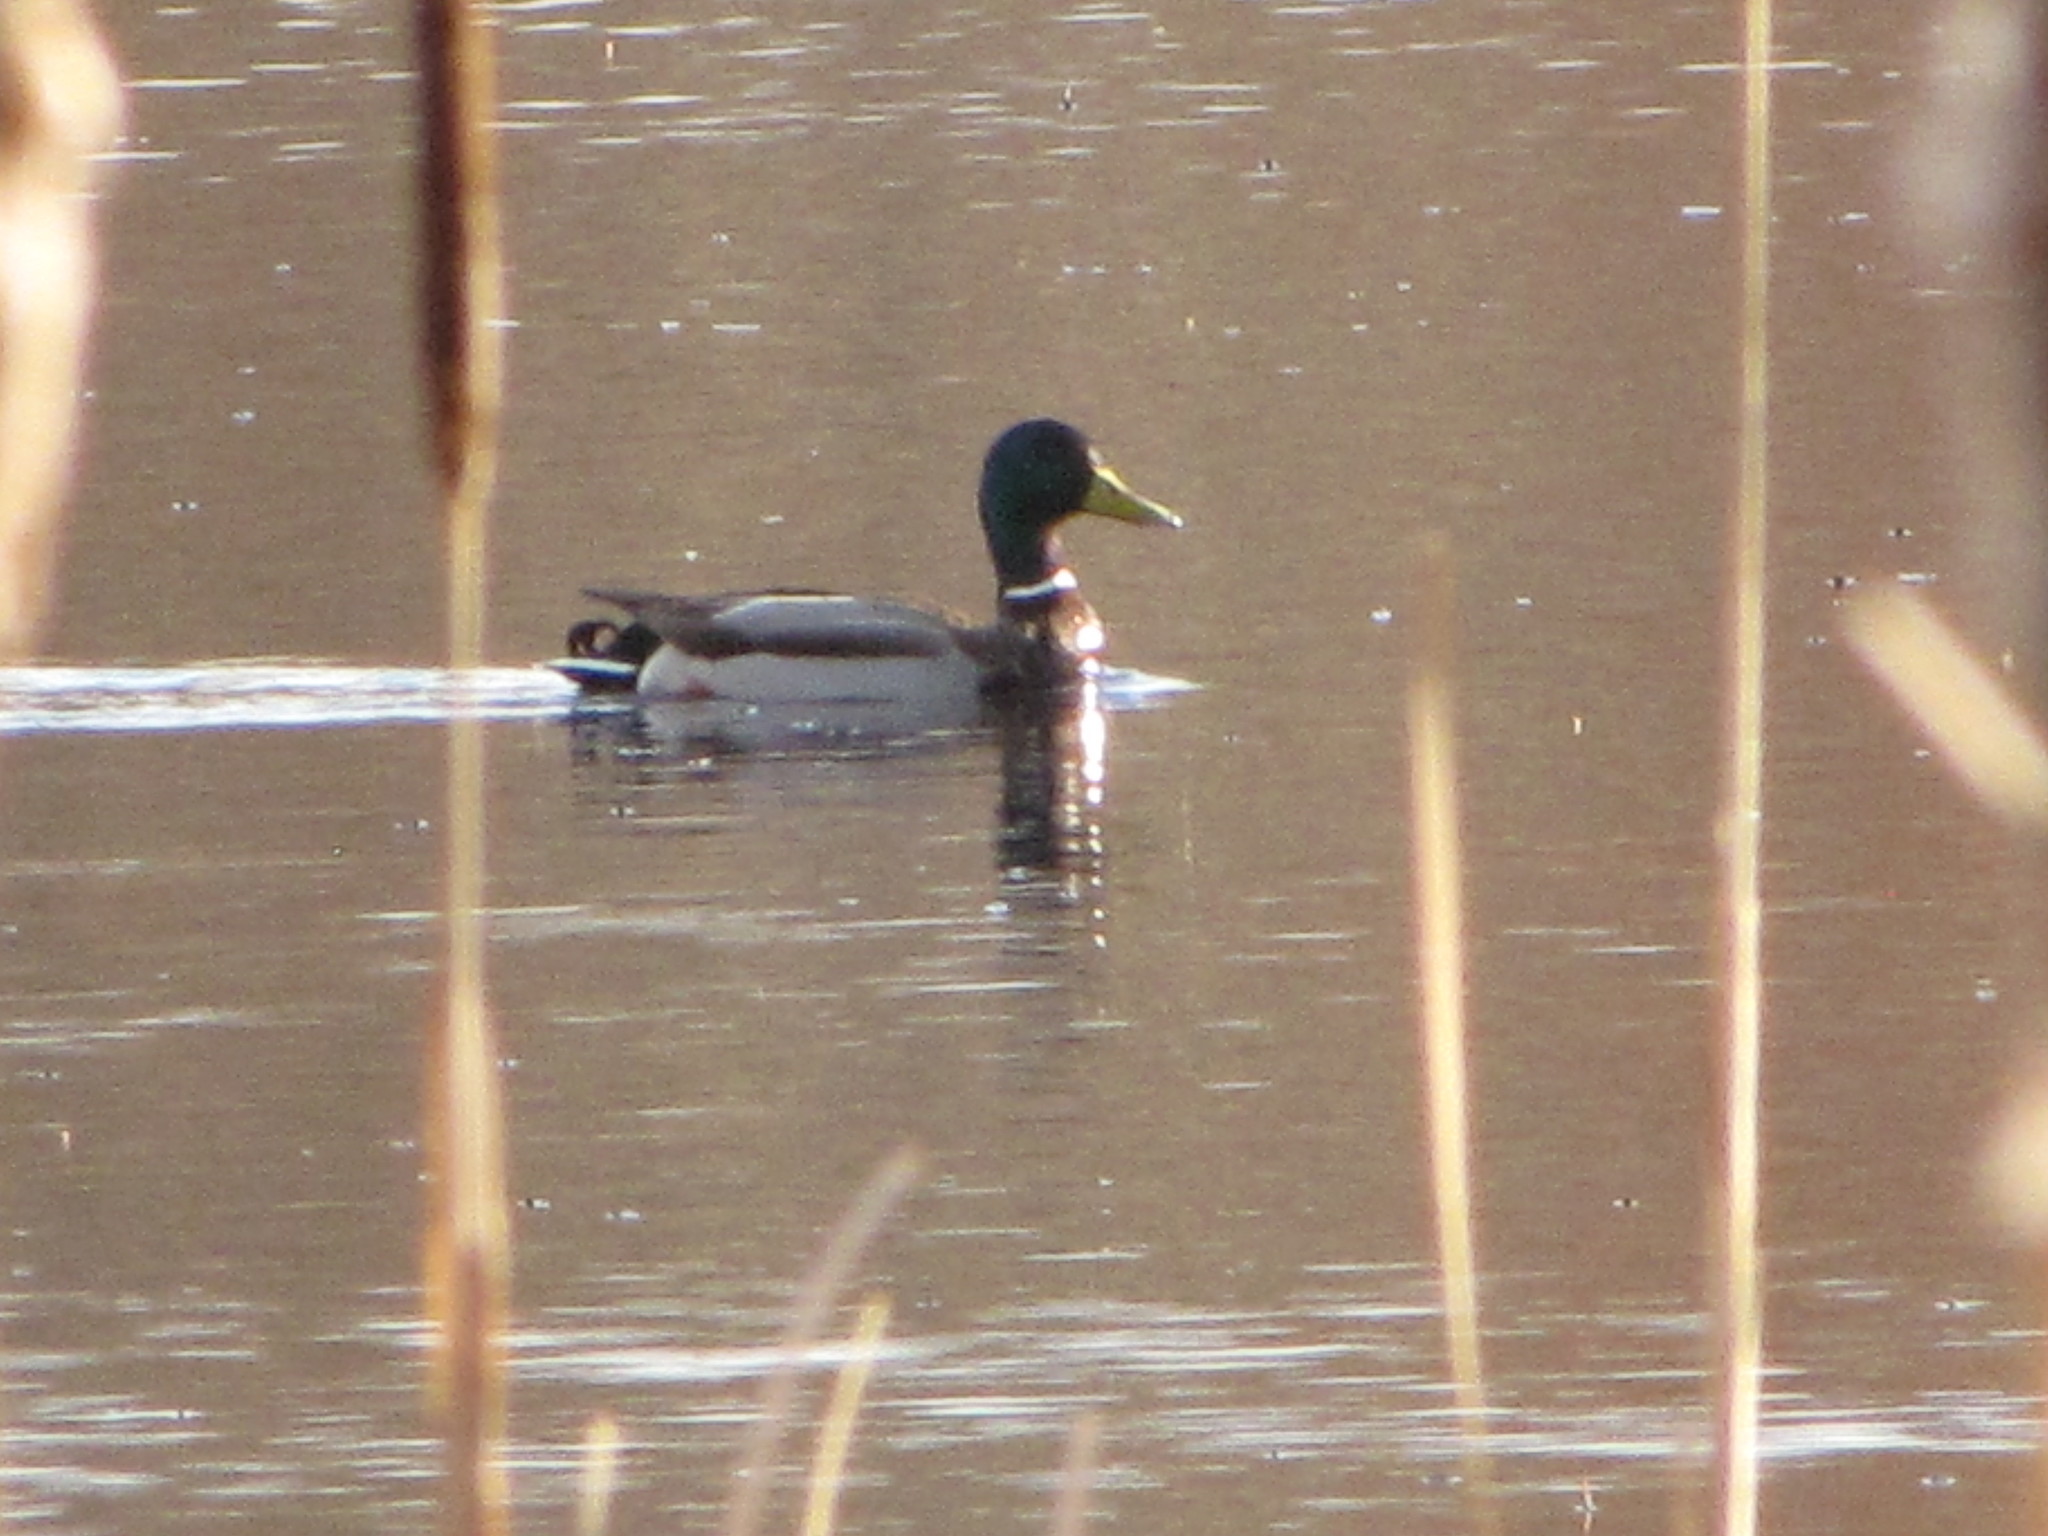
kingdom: Animalia
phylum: Chordata
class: Aves
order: Anseriformes
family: Anatidae
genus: Anas
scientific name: Anas platyrhynchos
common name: Mallard
